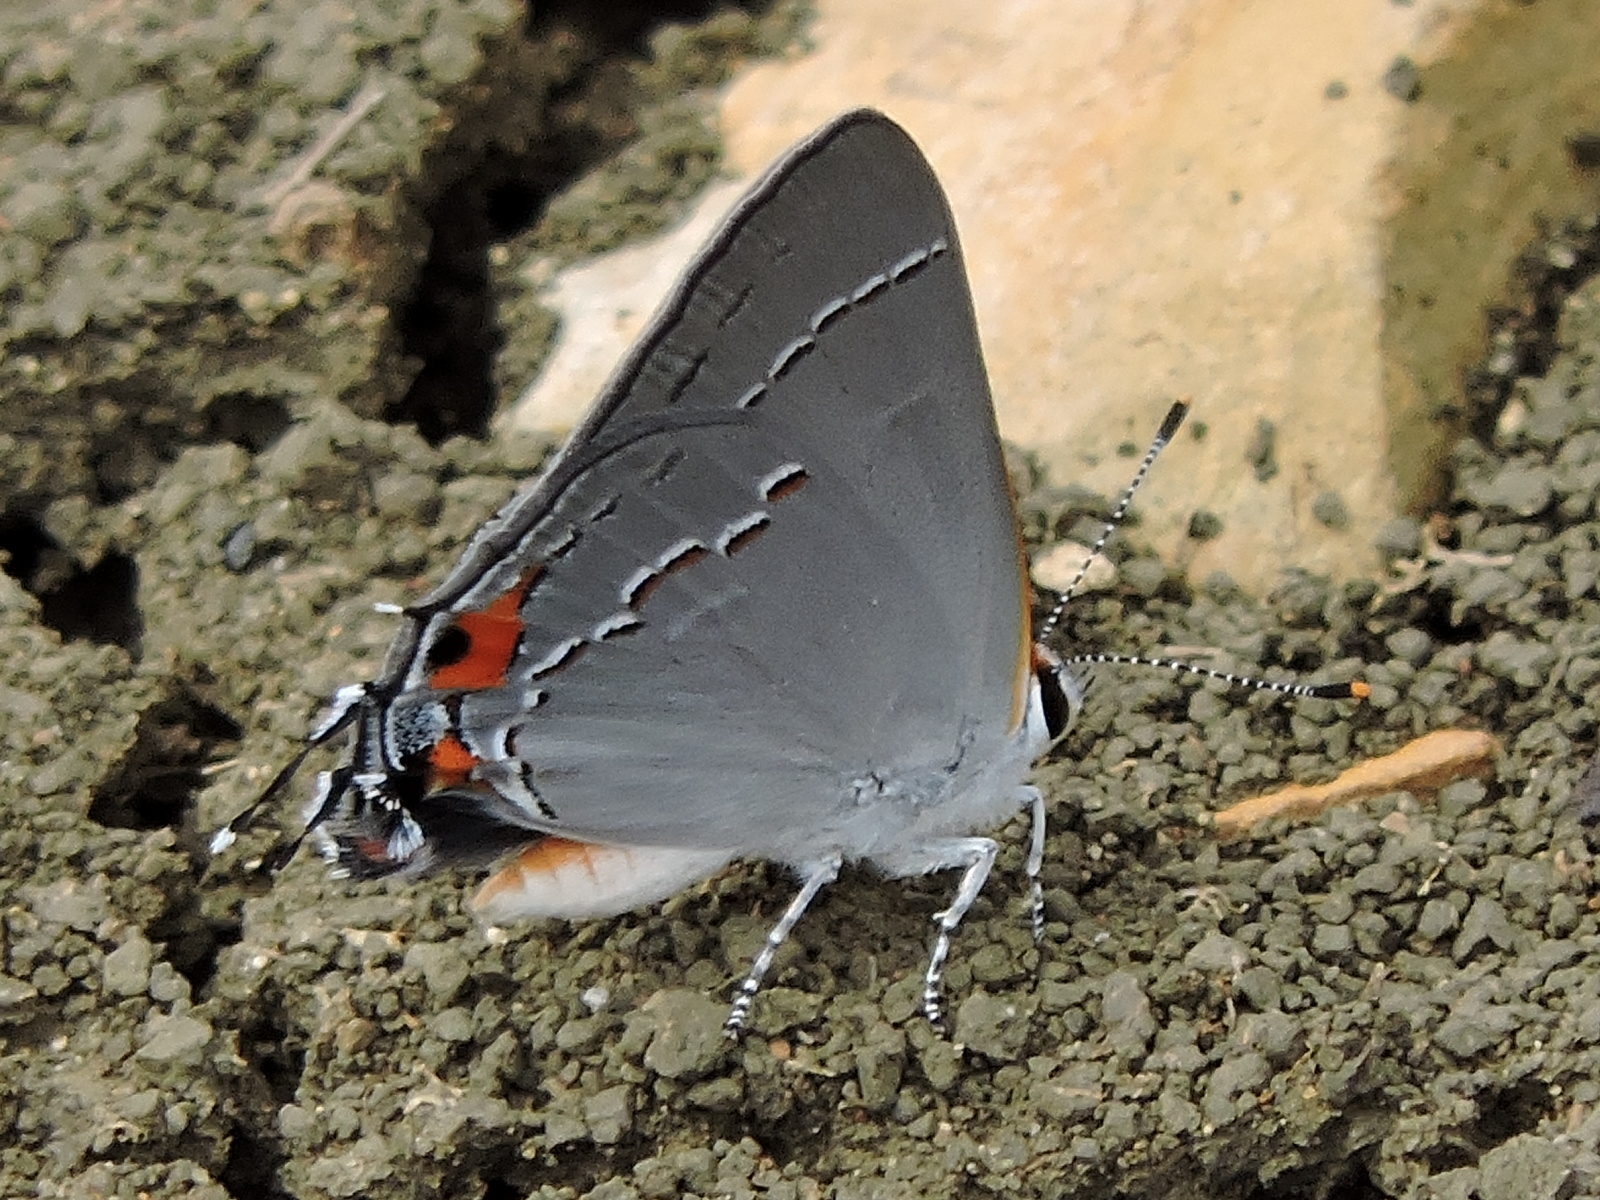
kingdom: Animalia
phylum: Arthropoda
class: Insecta
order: Lepidoptera
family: Lycaenidae
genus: Strymon
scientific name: Strymon melinus
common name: Gray hairstreak
